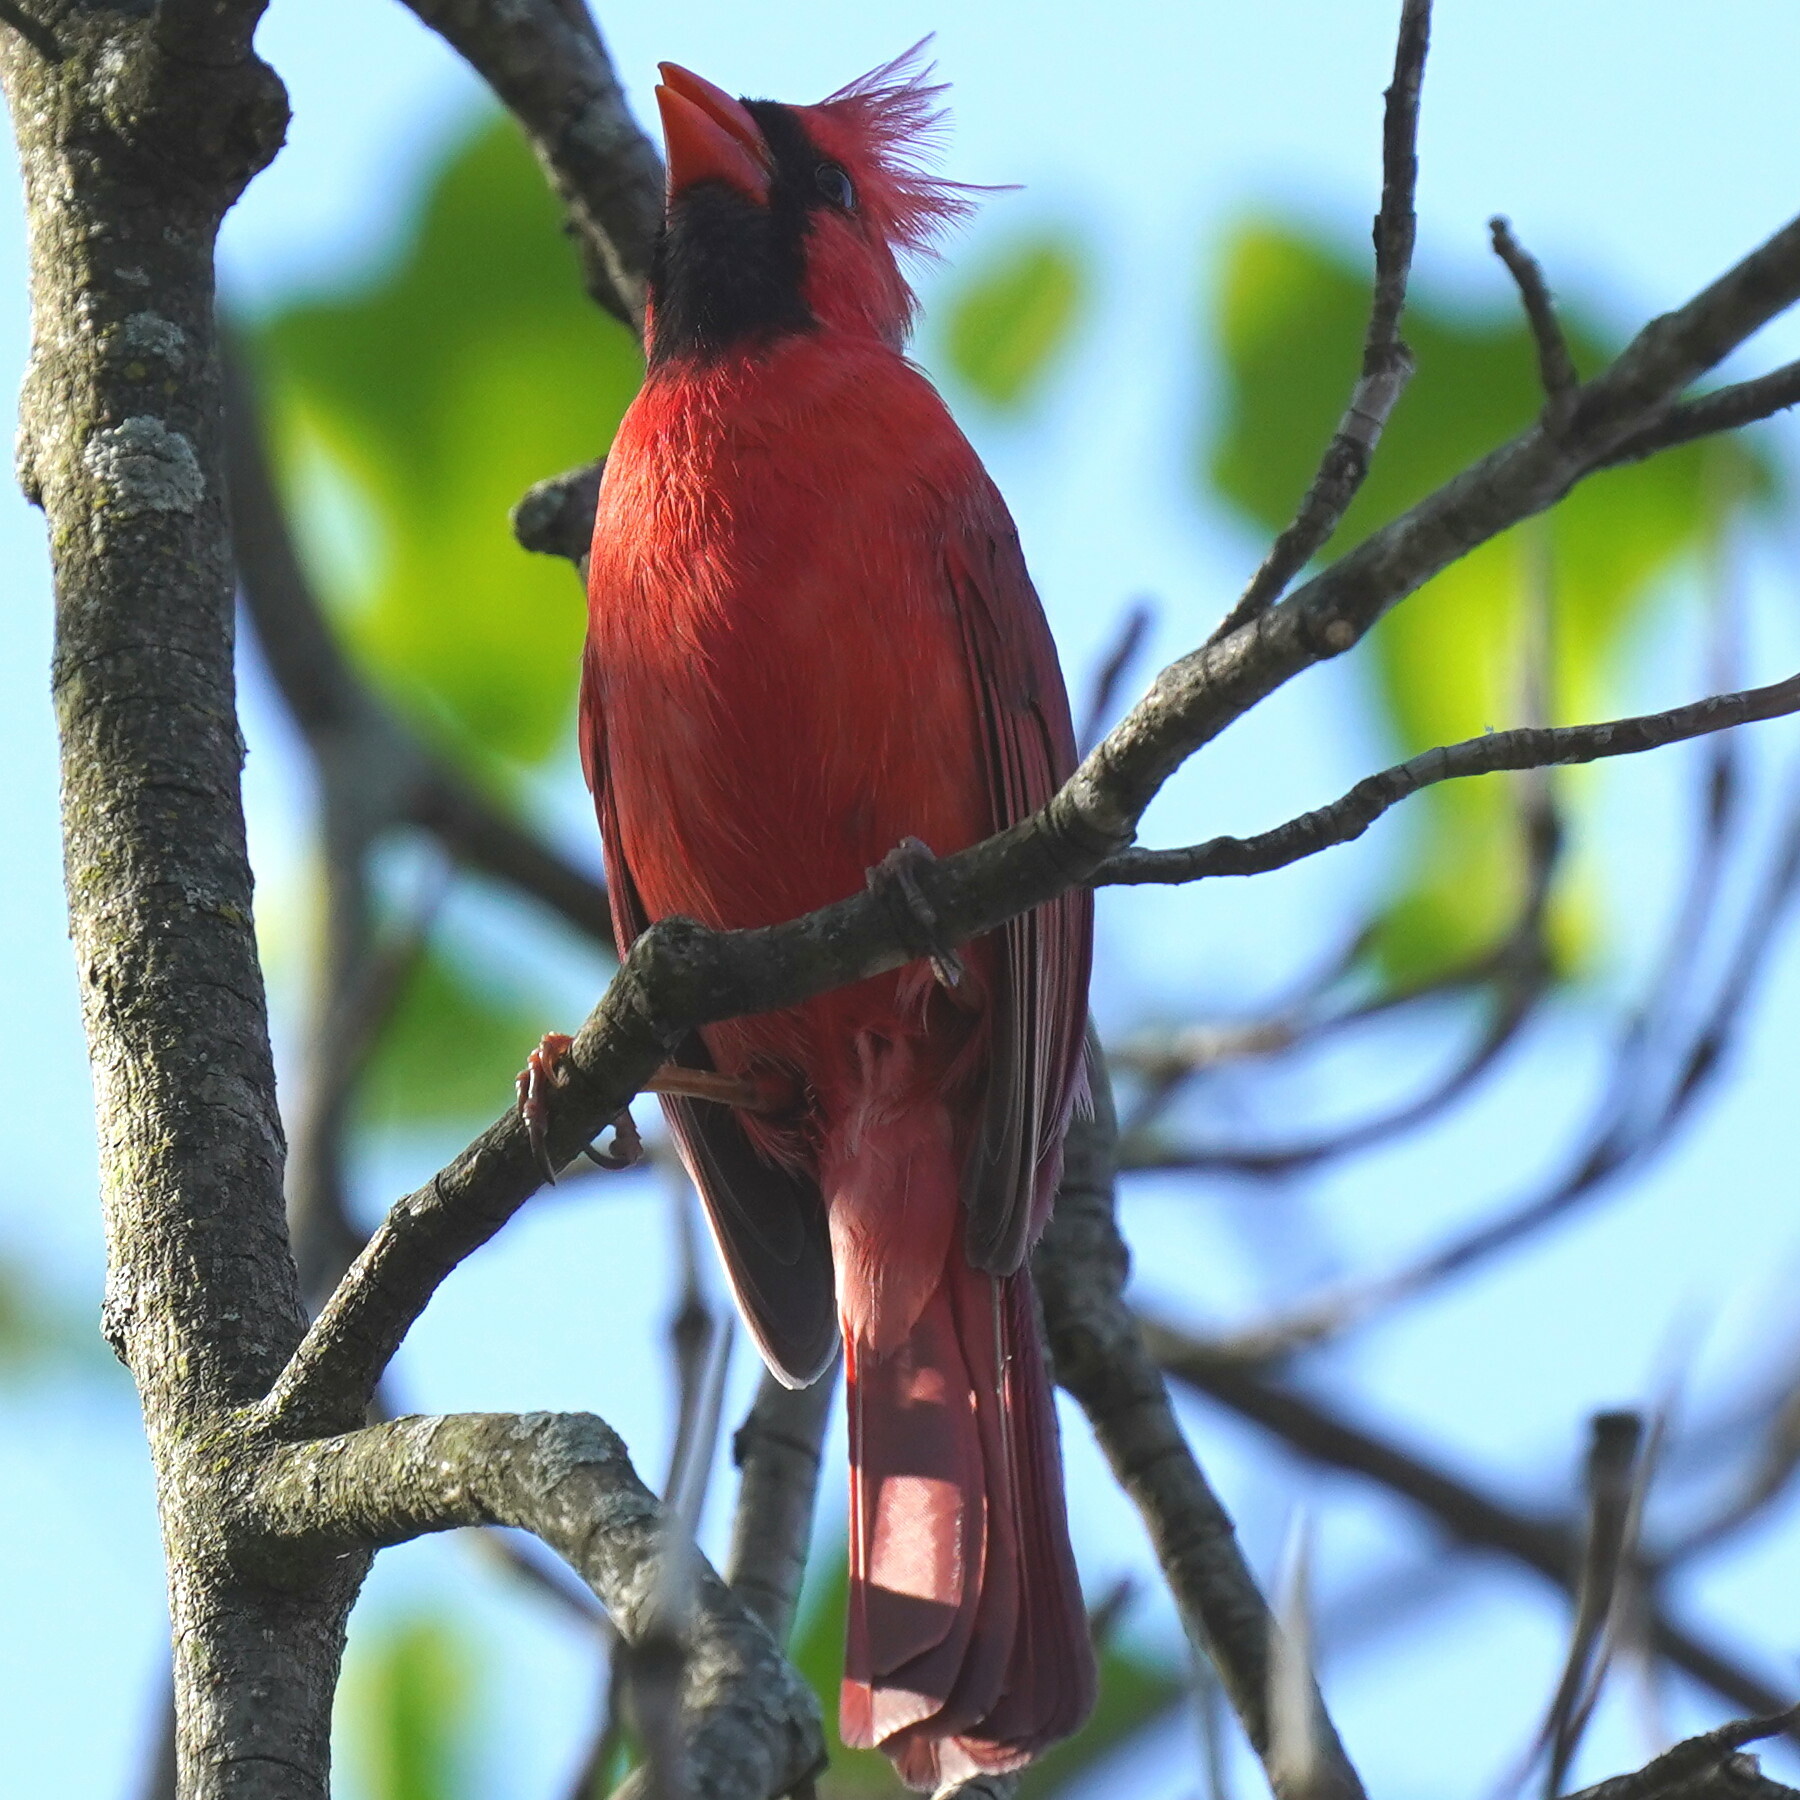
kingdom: Animalia
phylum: Chordata
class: Aves
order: Passeriformes
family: Cardinalidae
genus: Cardinalis
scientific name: Cardinalis cardinalis
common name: Northern cardinal
